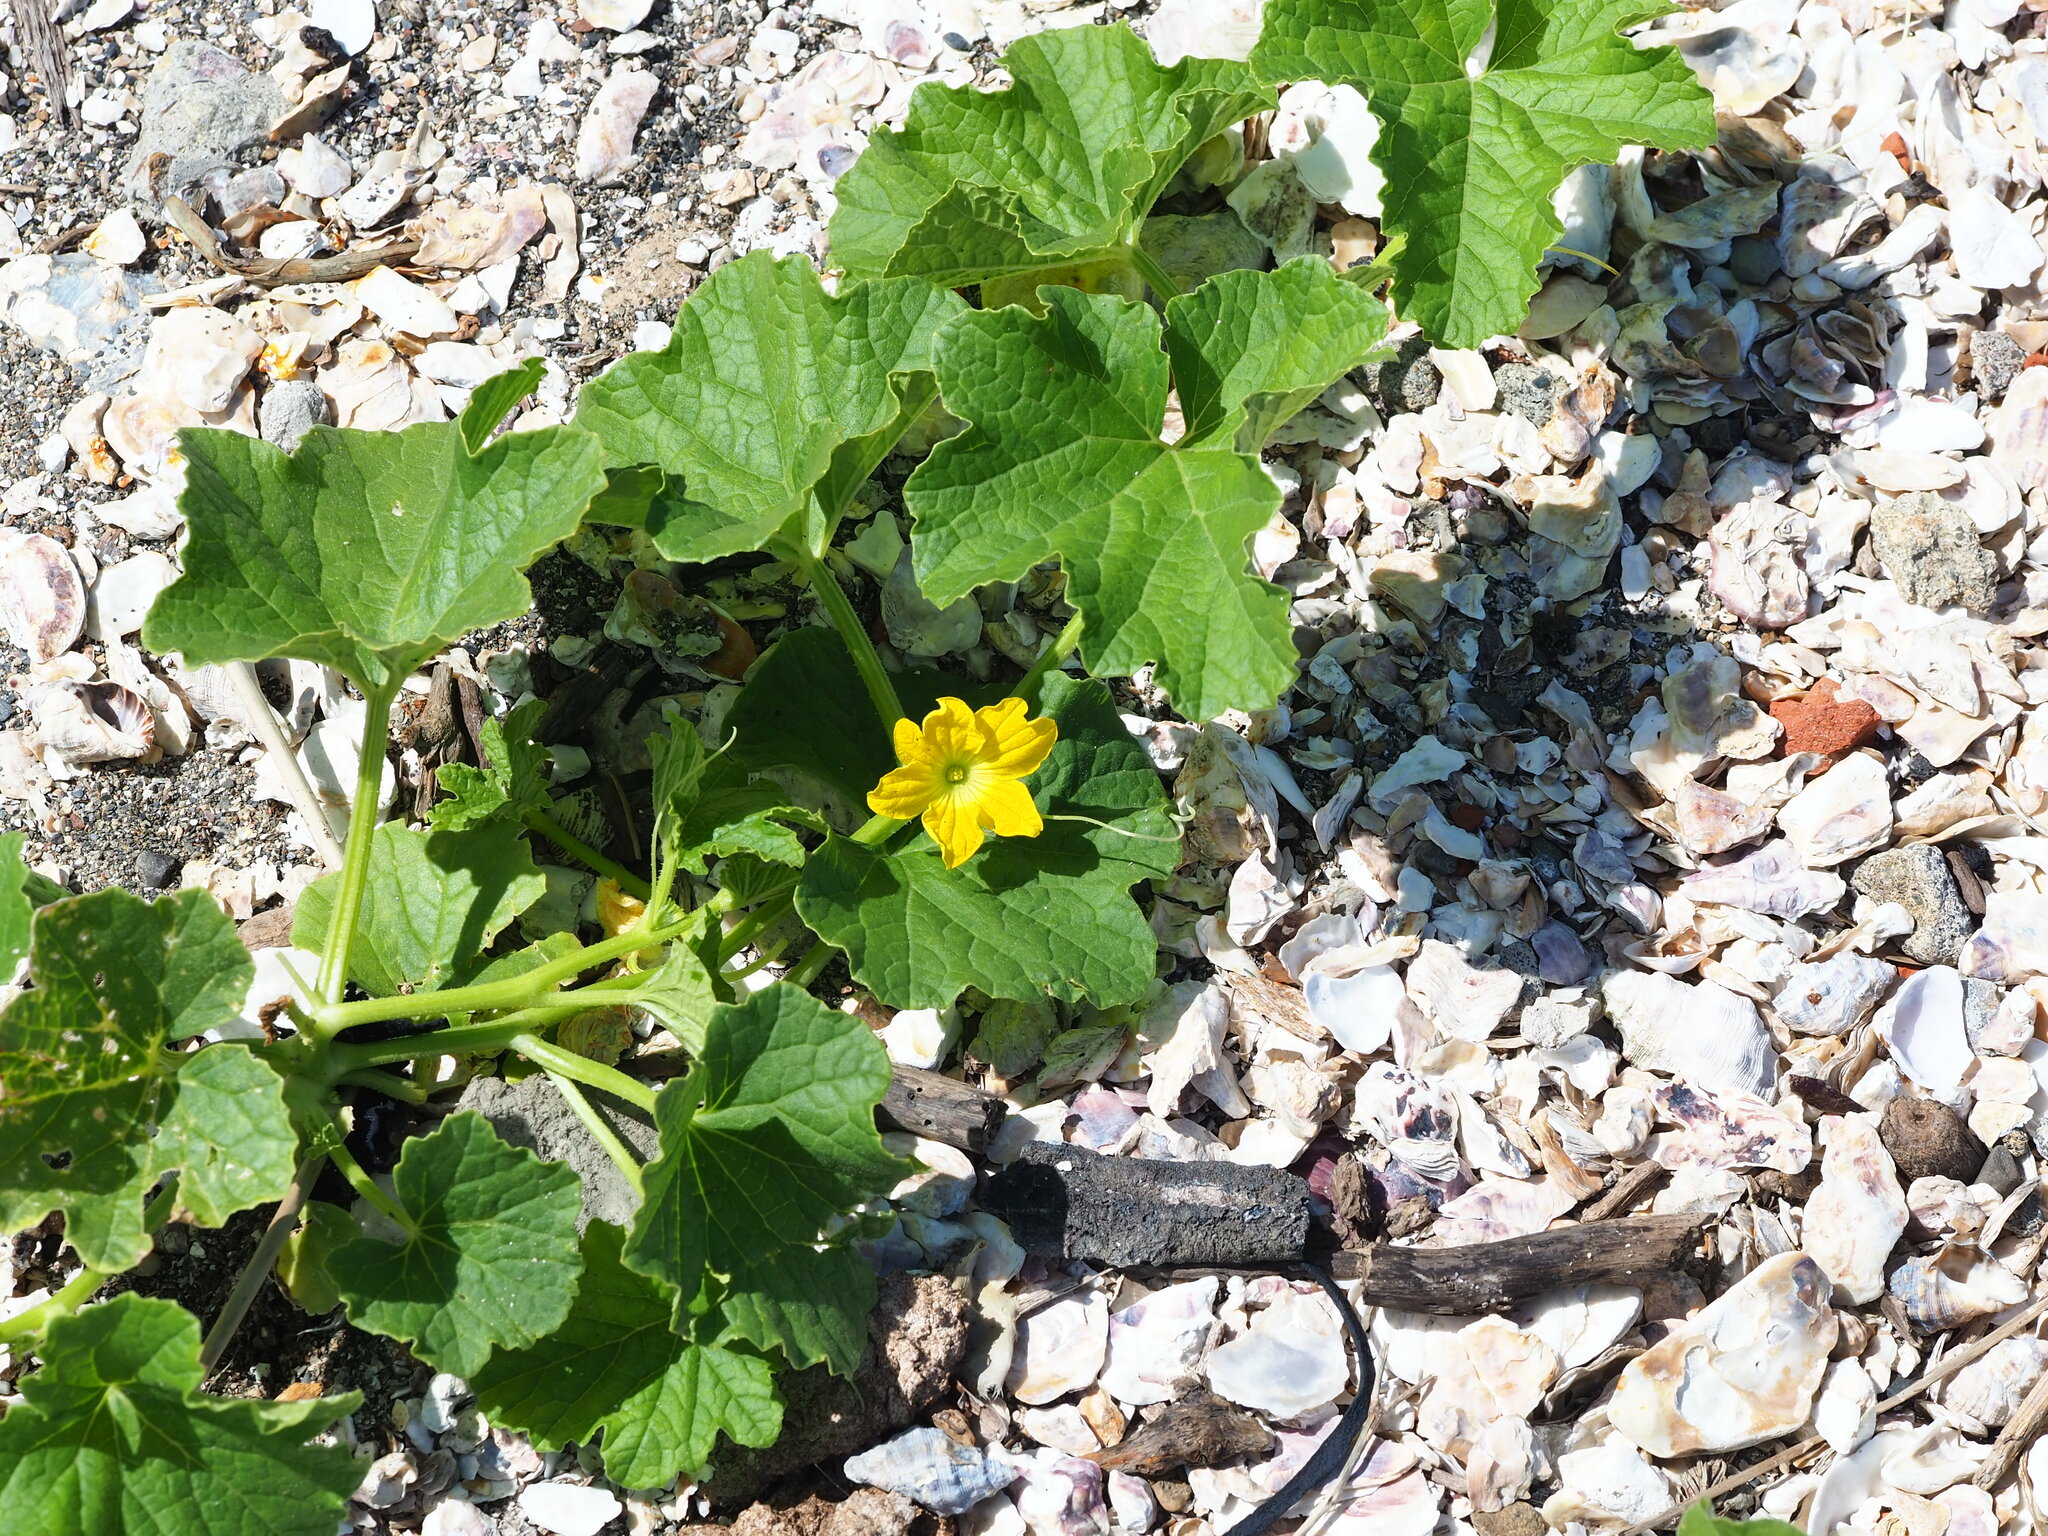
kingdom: Plantae
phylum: Tracheophyta
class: Magnoliopsida
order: Cucurbitales
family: Cucurbitaceae
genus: Cucumis
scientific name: Cucumis melo
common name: Melon
